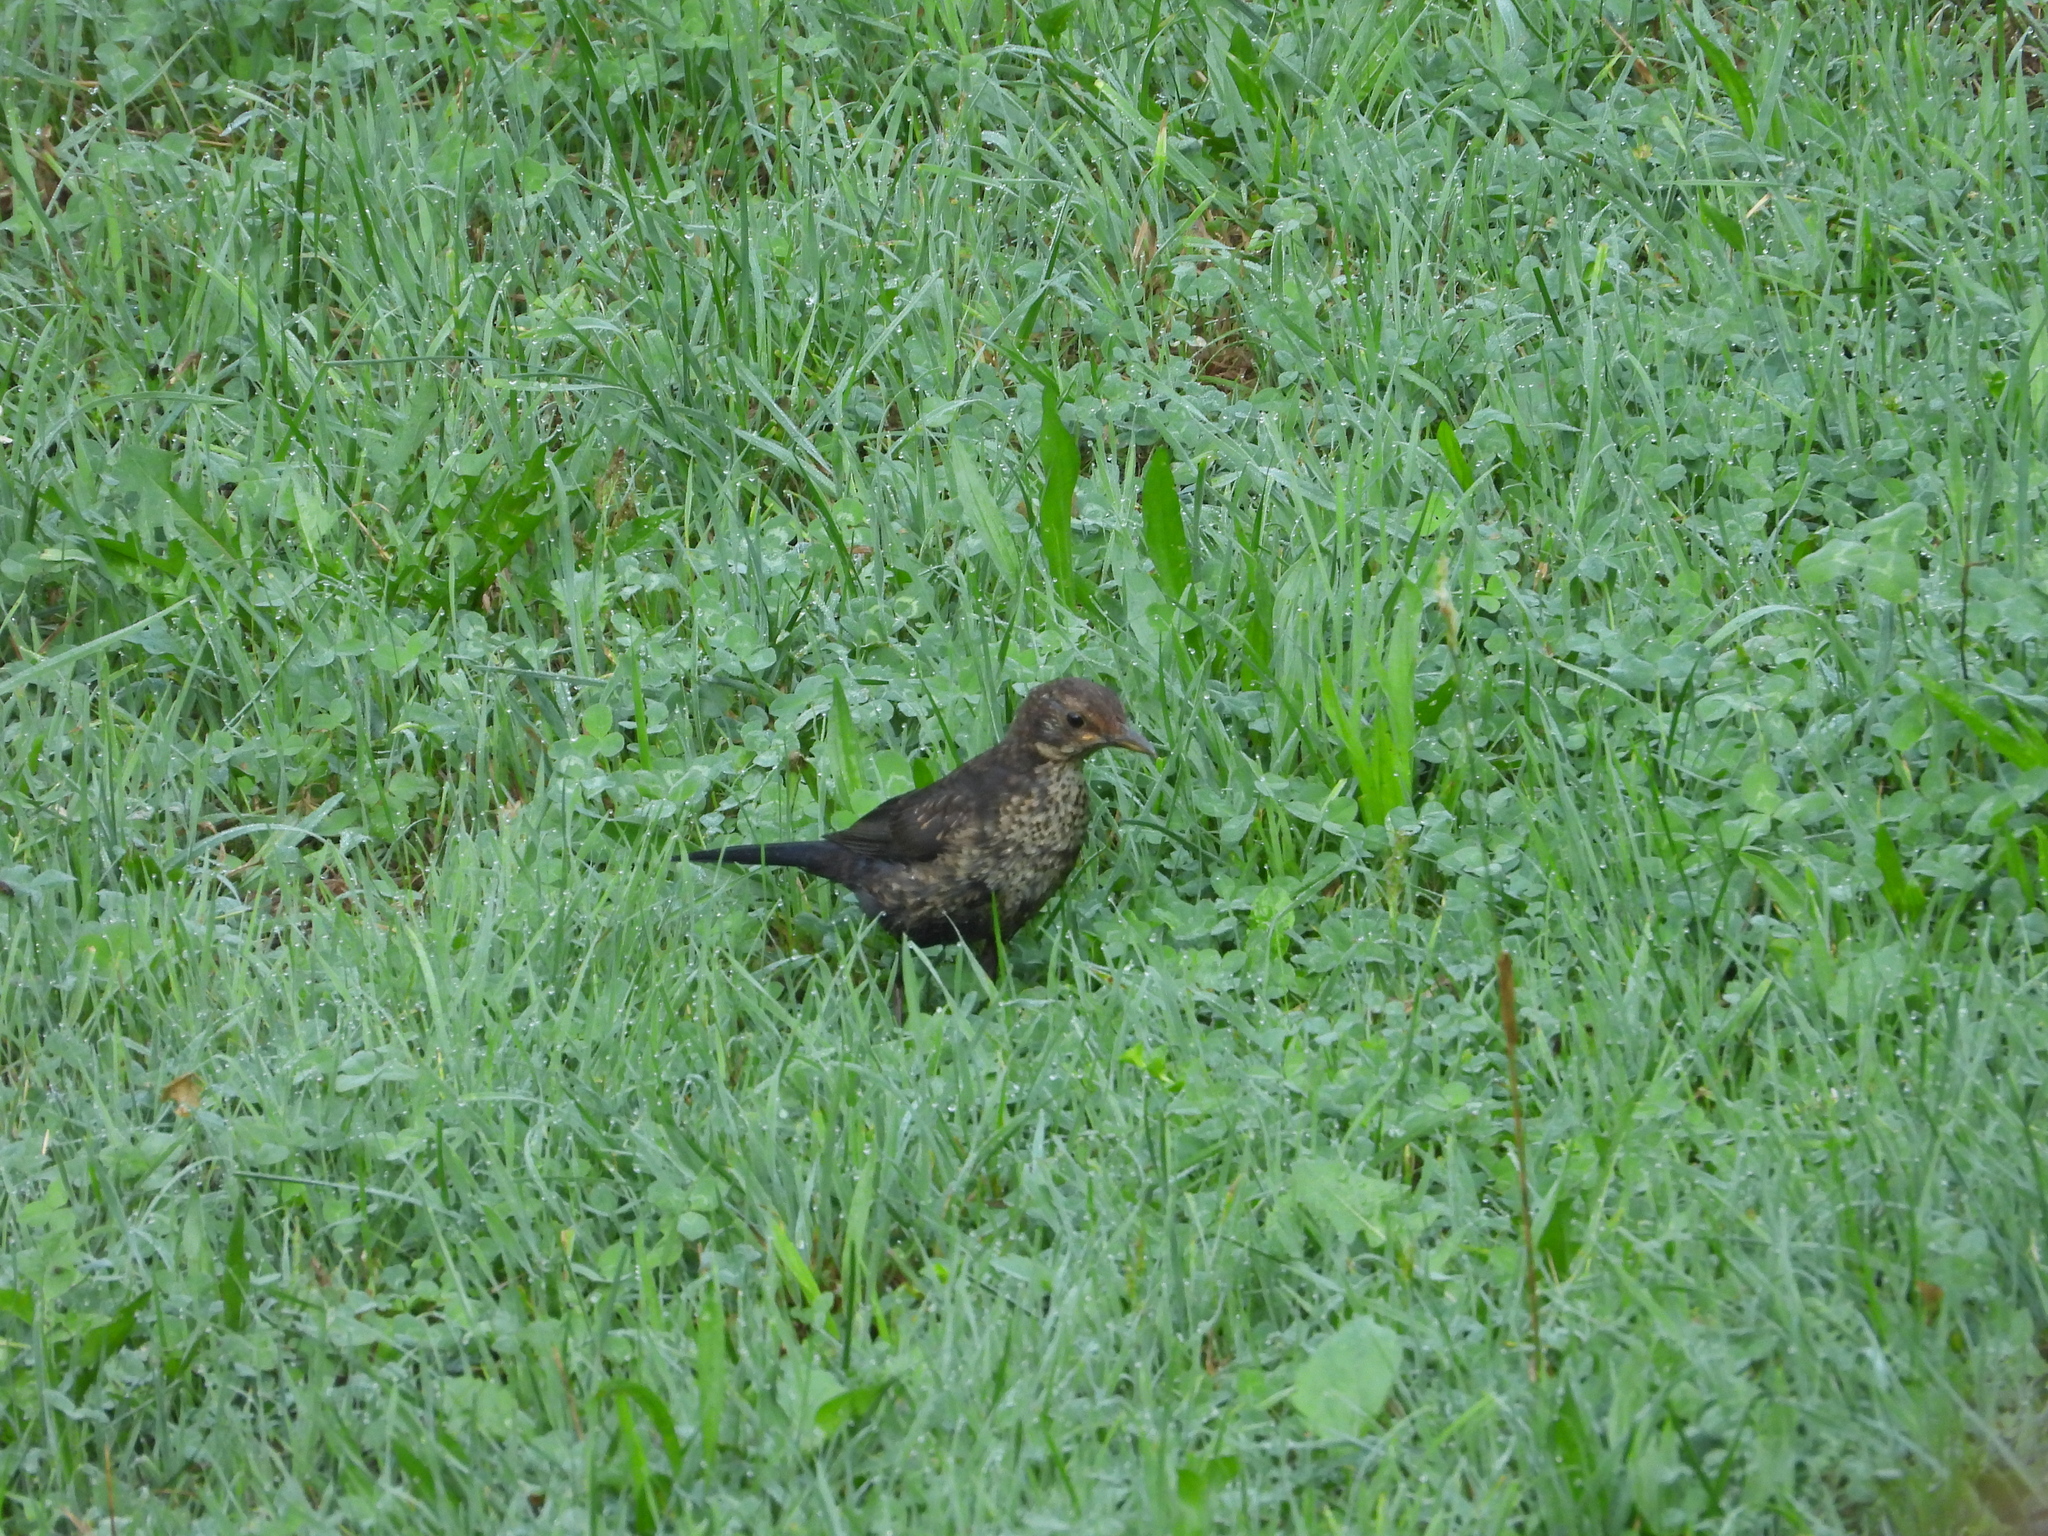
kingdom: Animalia
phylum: Chordata
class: Aves
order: Passeriformes
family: Turdidae
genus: Turdus
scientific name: Turdus merula
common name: Common blackbird
